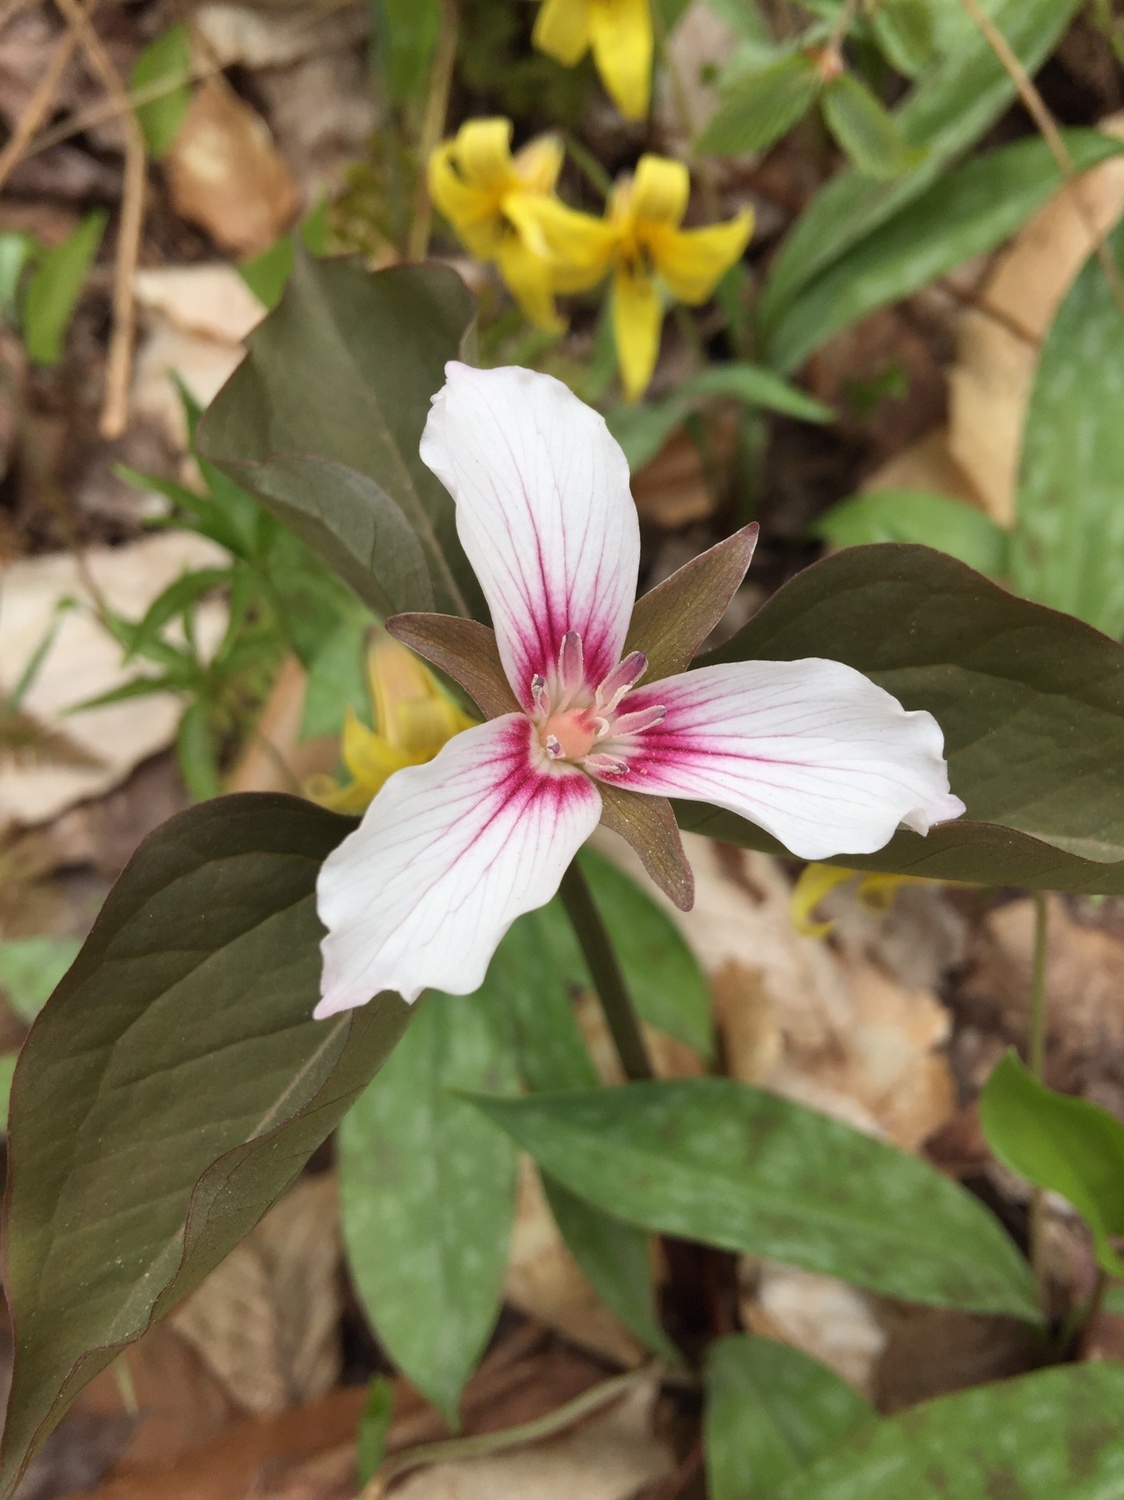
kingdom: Plantae
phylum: Tracheophyta
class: Liliopsida
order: Liliales
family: Melanthiaceae
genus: Trillium
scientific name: Trillium undulatum
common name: Paint trillium
